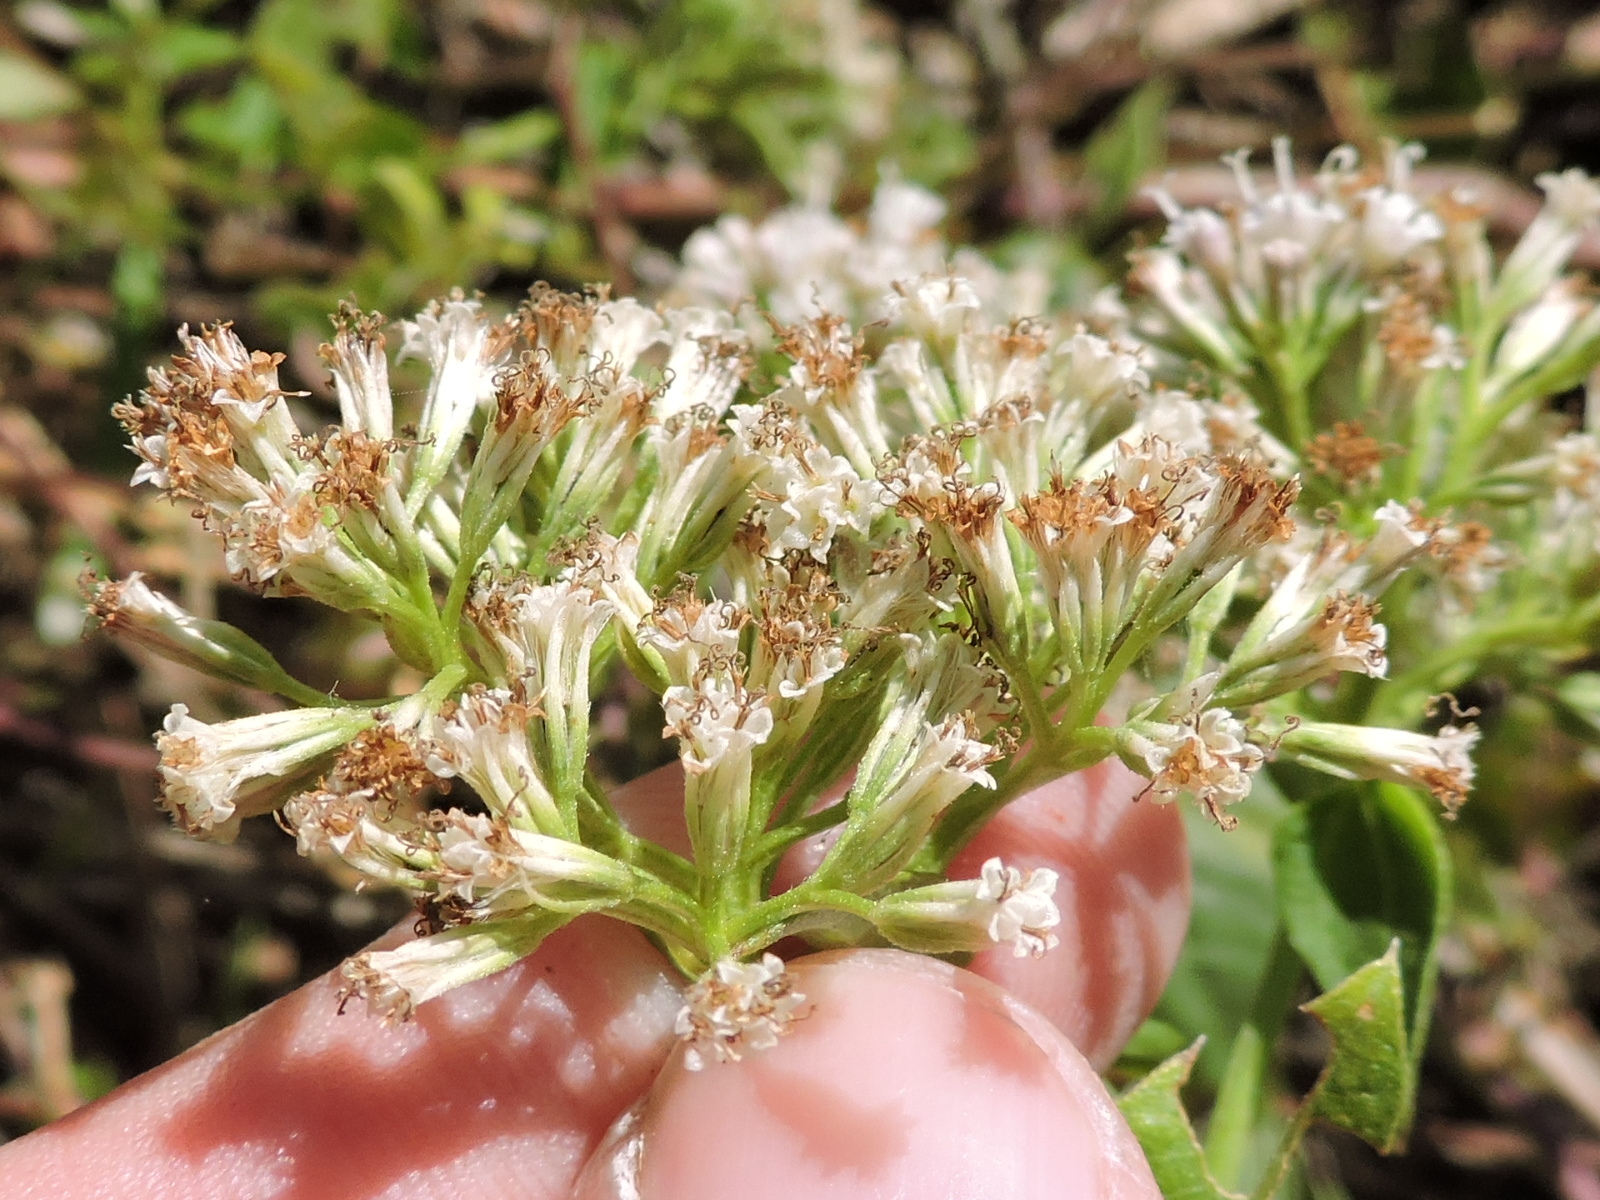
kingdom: Plantae
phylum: Tracheophyta
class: Magnoliopsida
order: Asterales
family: Asteraceae
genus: Mikania
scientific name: Mikania scandens
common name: Climbing hempvine
